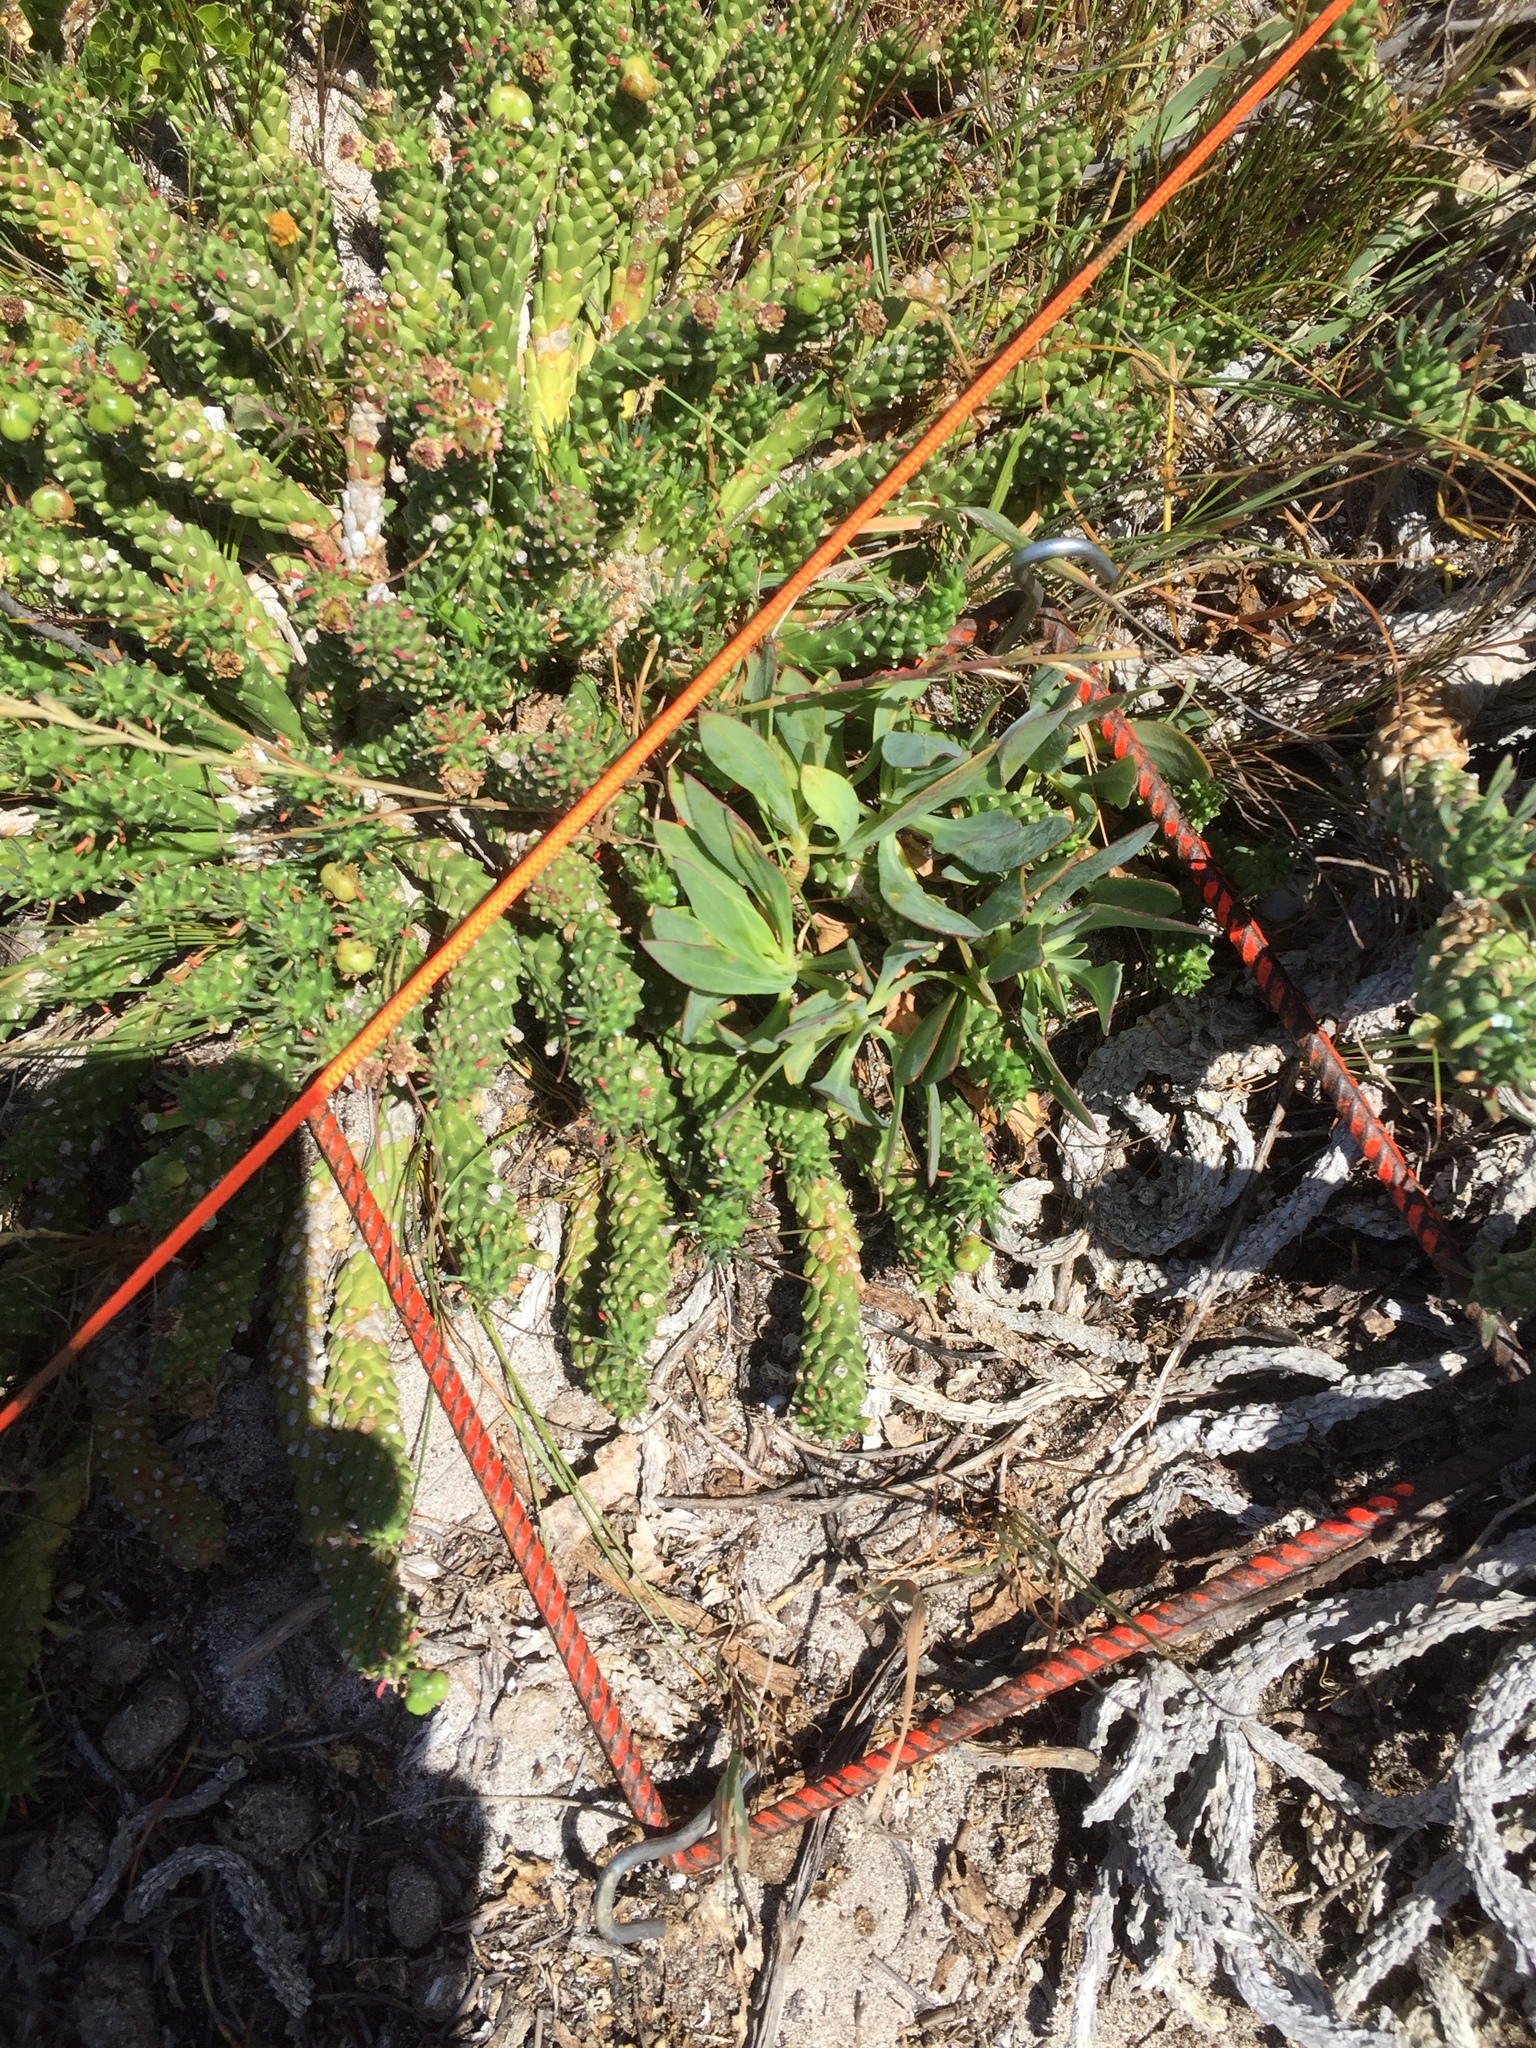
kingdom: Plantae
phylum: Tracheophyta
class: Magnoliopsida
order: Asterales
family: Asteraceae
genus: Othonna
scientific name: Othonna quinquedentata
